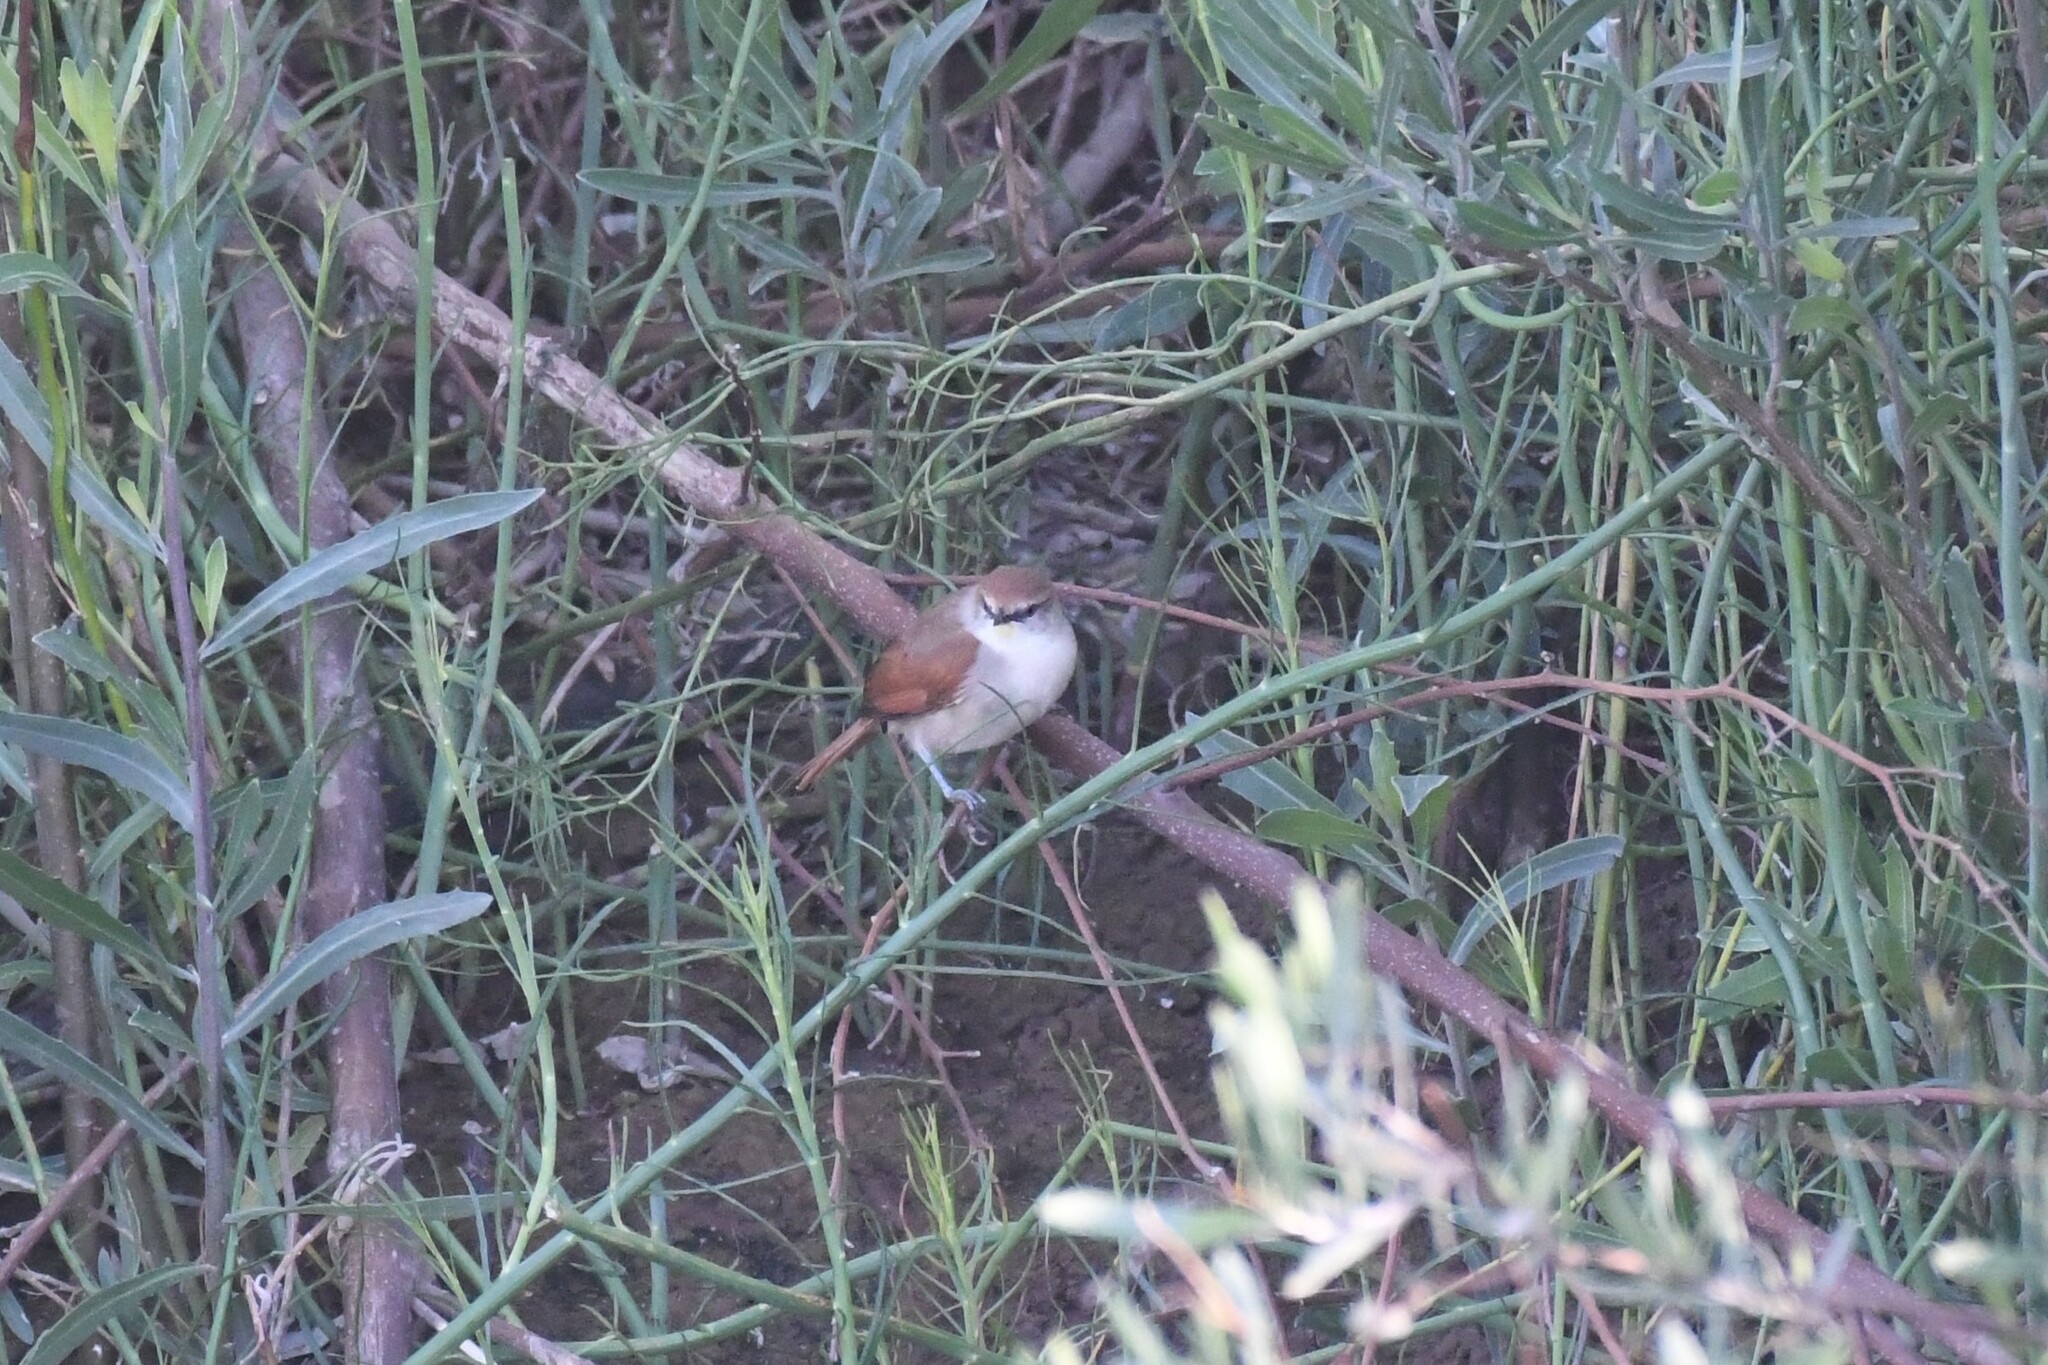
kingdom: Animalia
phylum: Chordata
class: Aves
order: Passeriformes
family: Furnariidae
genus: Certhiaxis
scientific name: Certhiaxis cinnamomeus
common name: Yellow-chinned spinetail
